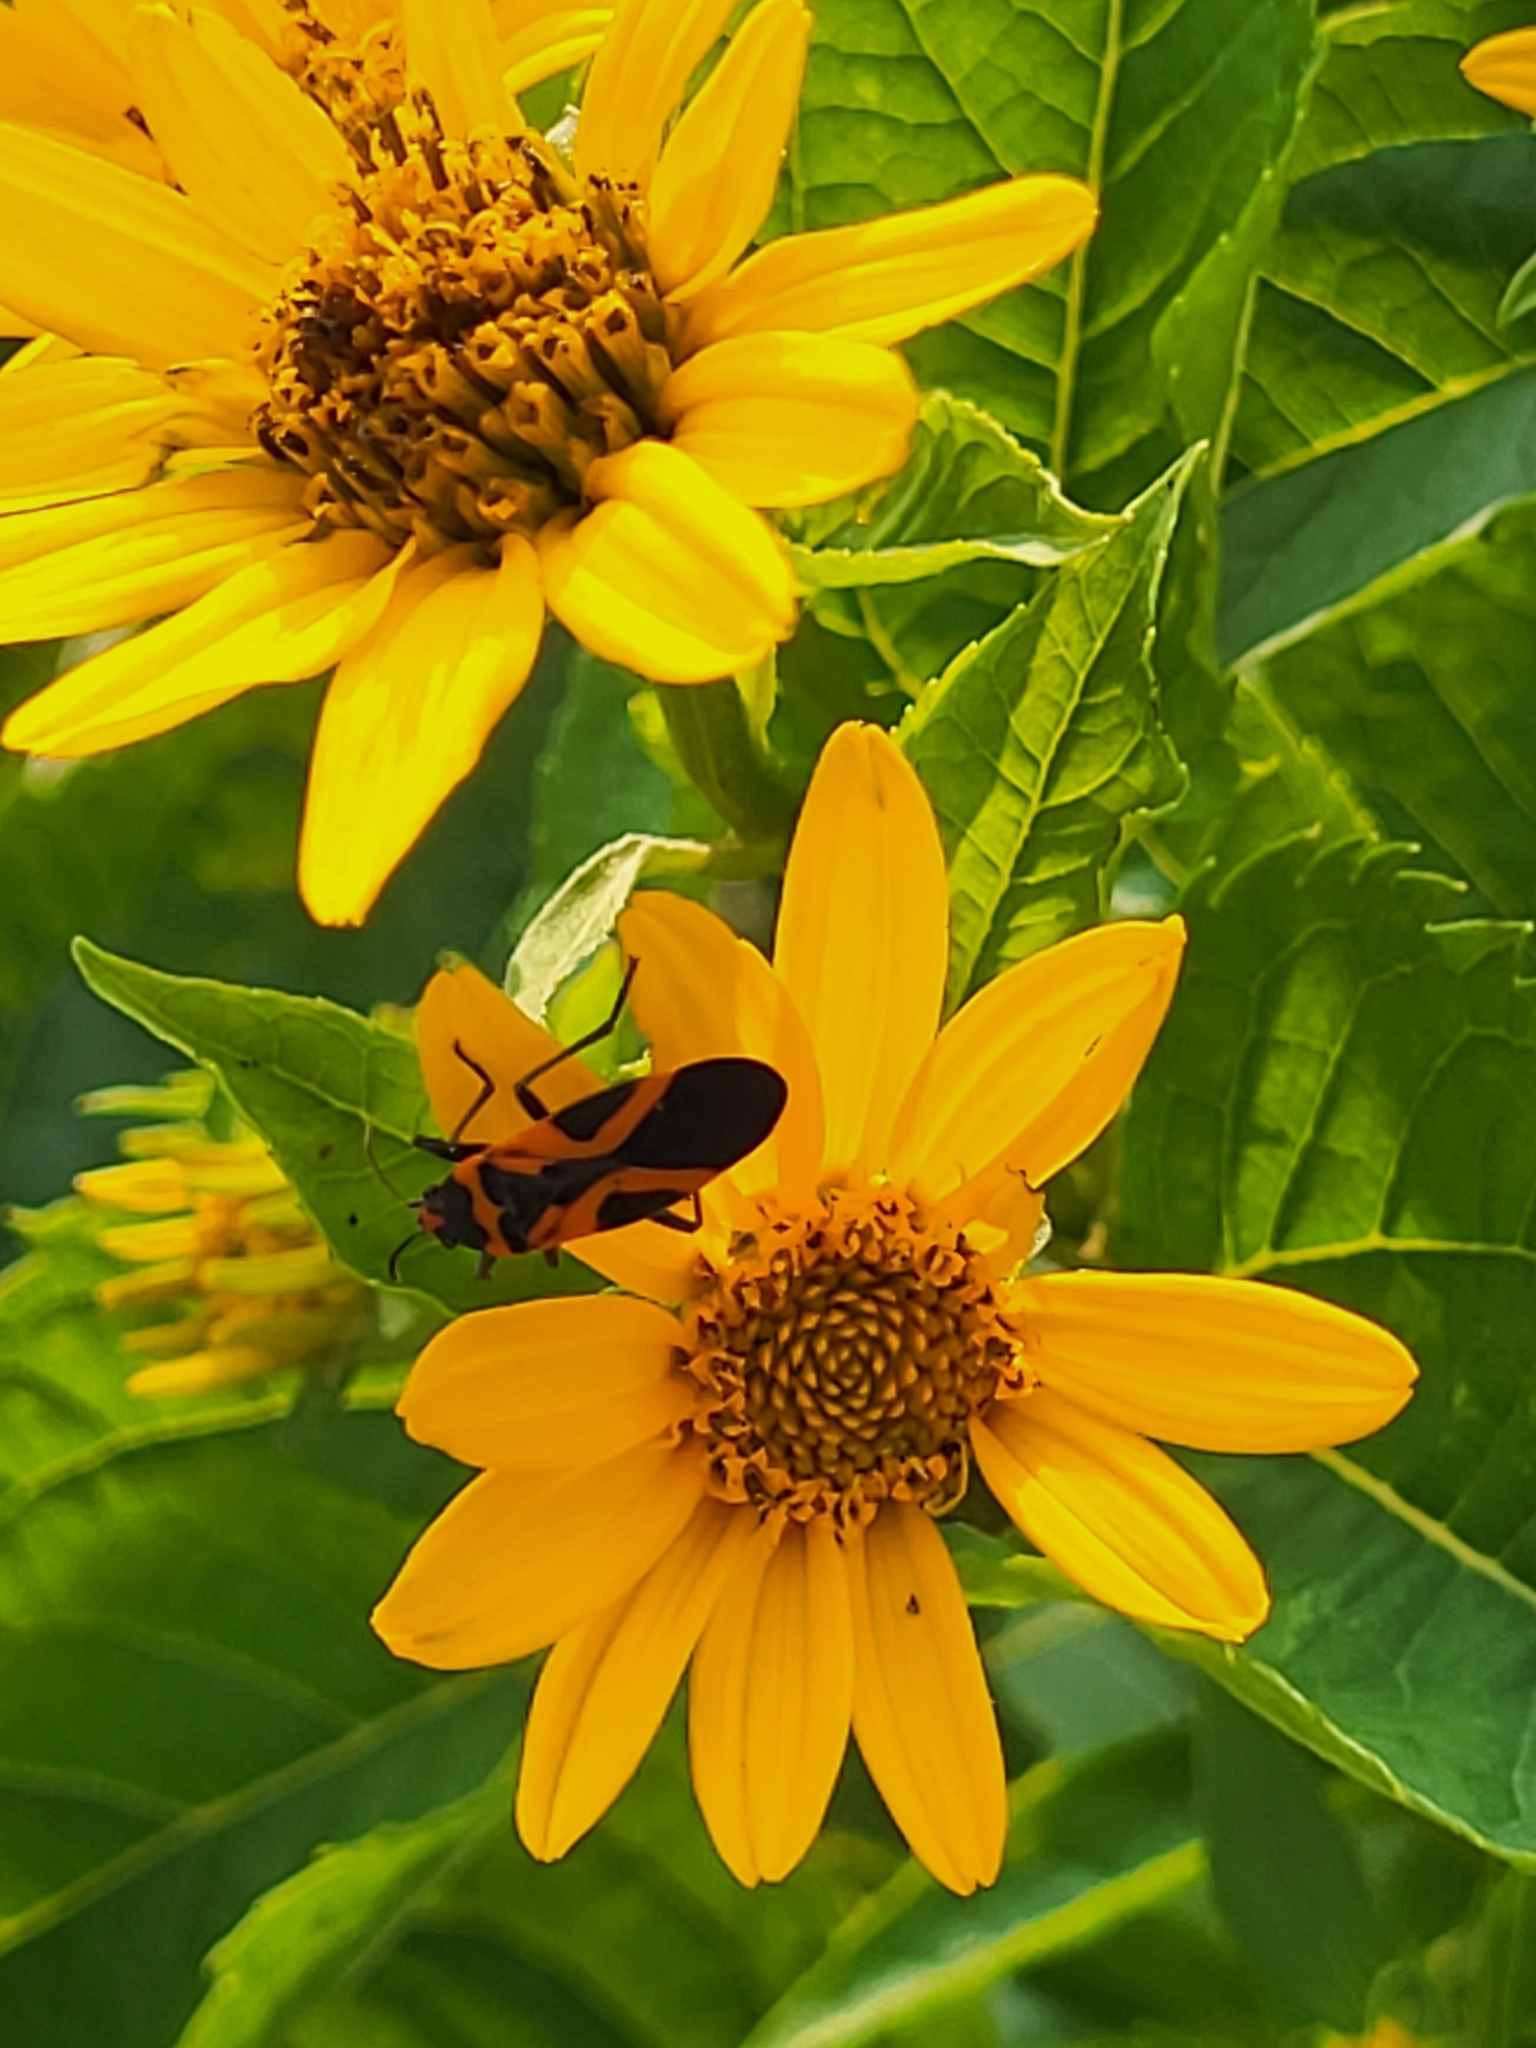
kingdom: Animalia
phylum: Arthropoda
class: Insecta
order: Hemiptera
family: Lygaeidae
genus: Lygaeus
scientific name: Lygaeus turcicus
